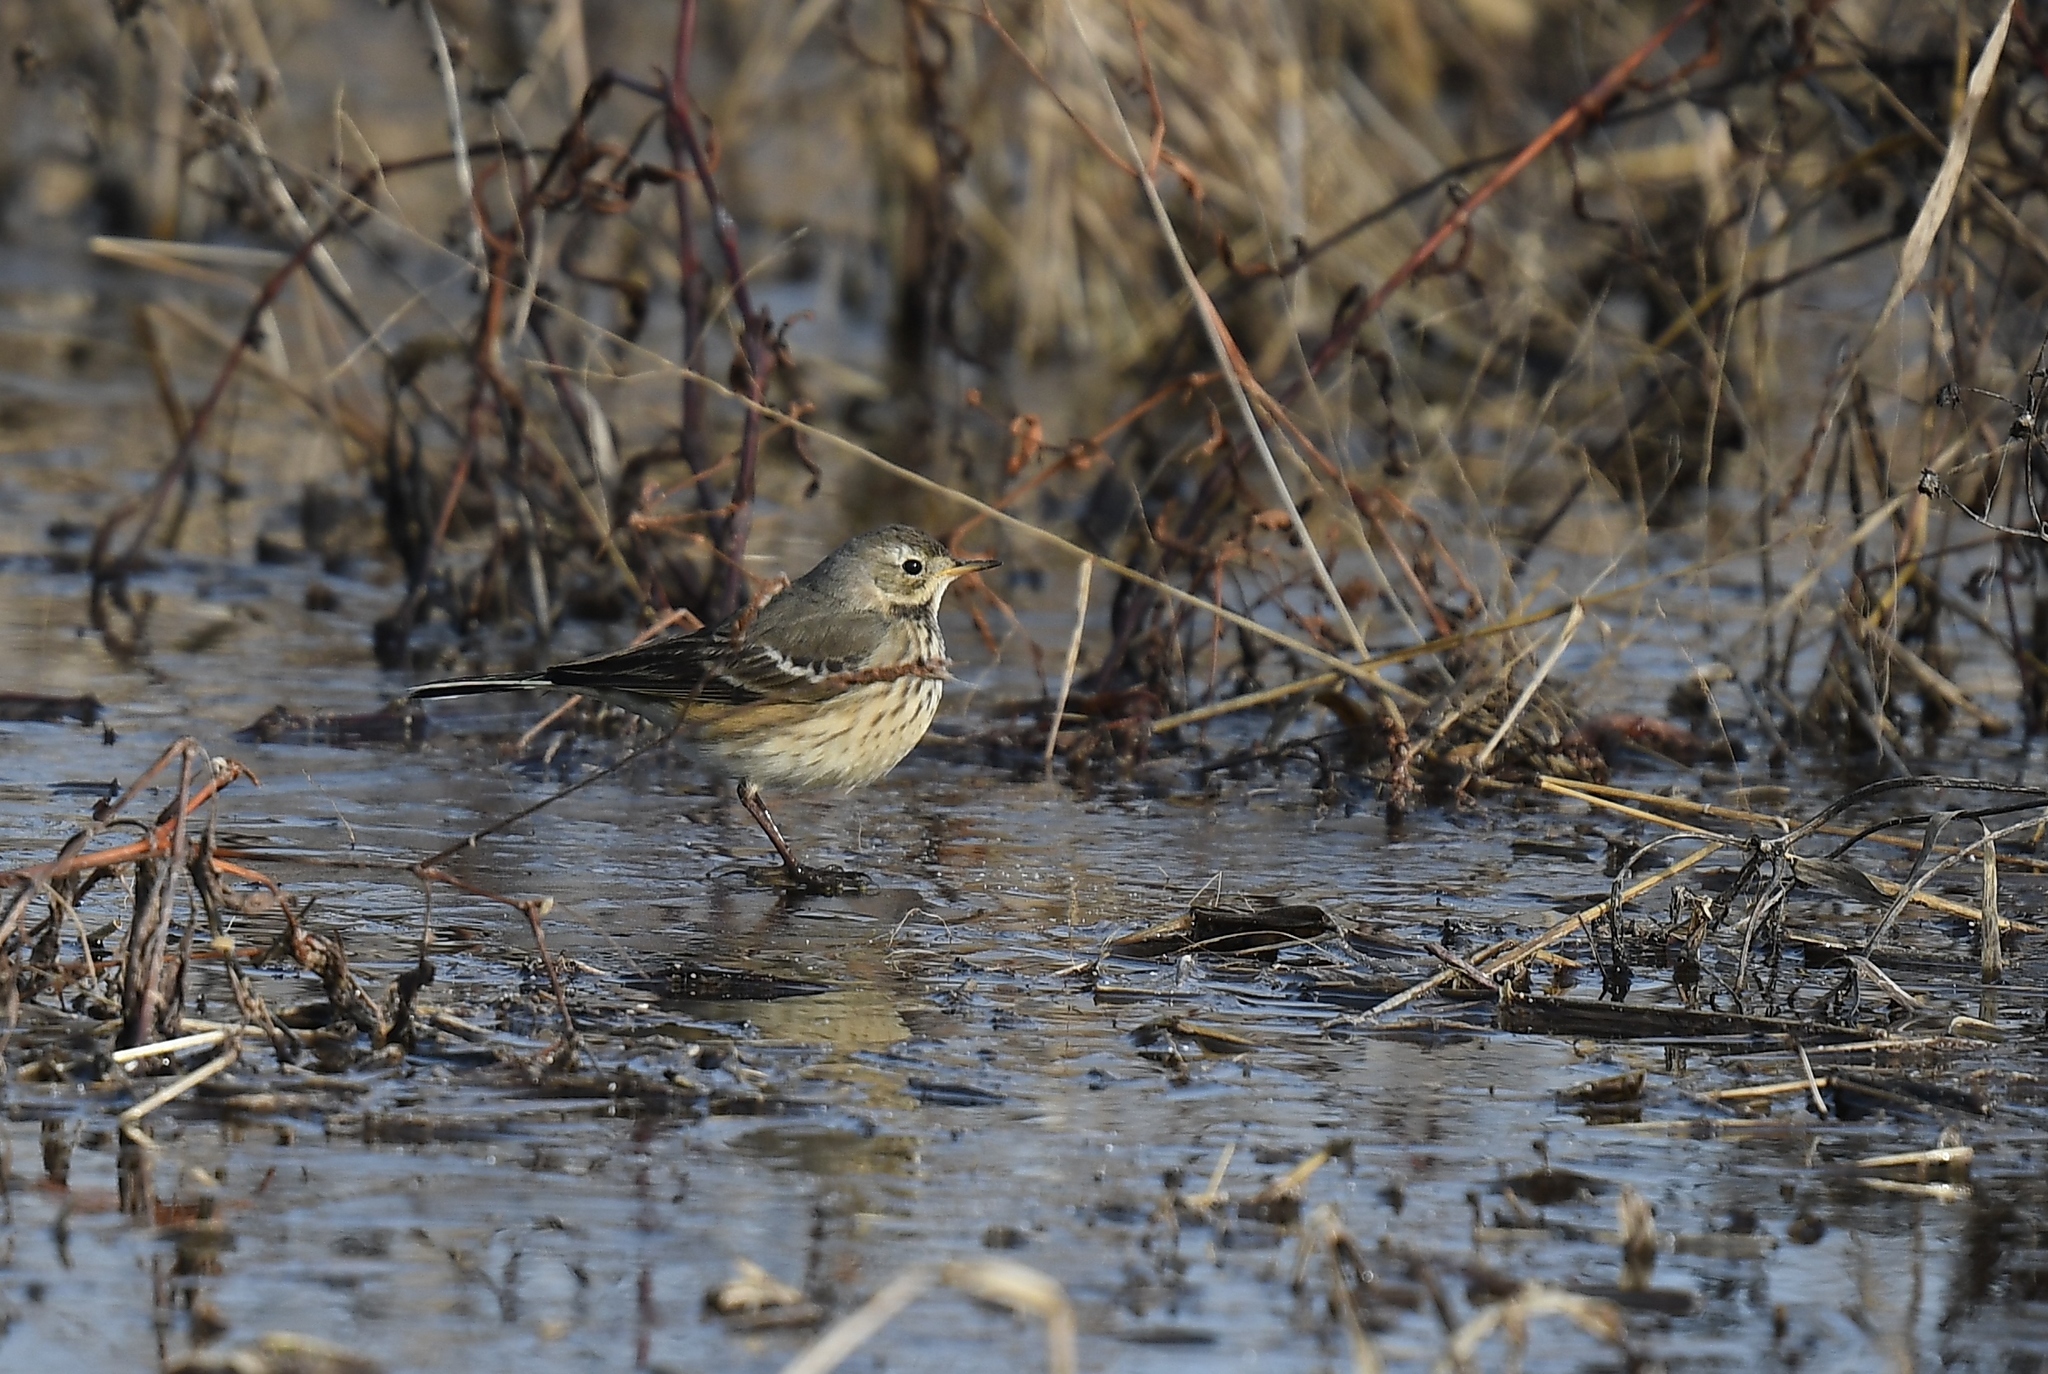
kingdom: Animalia
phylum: Chordata
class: Aves
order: Passeriformes
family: Motacillidae
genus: Anthus
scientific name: Anthus rubescens
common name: Buff-bellied pipit
